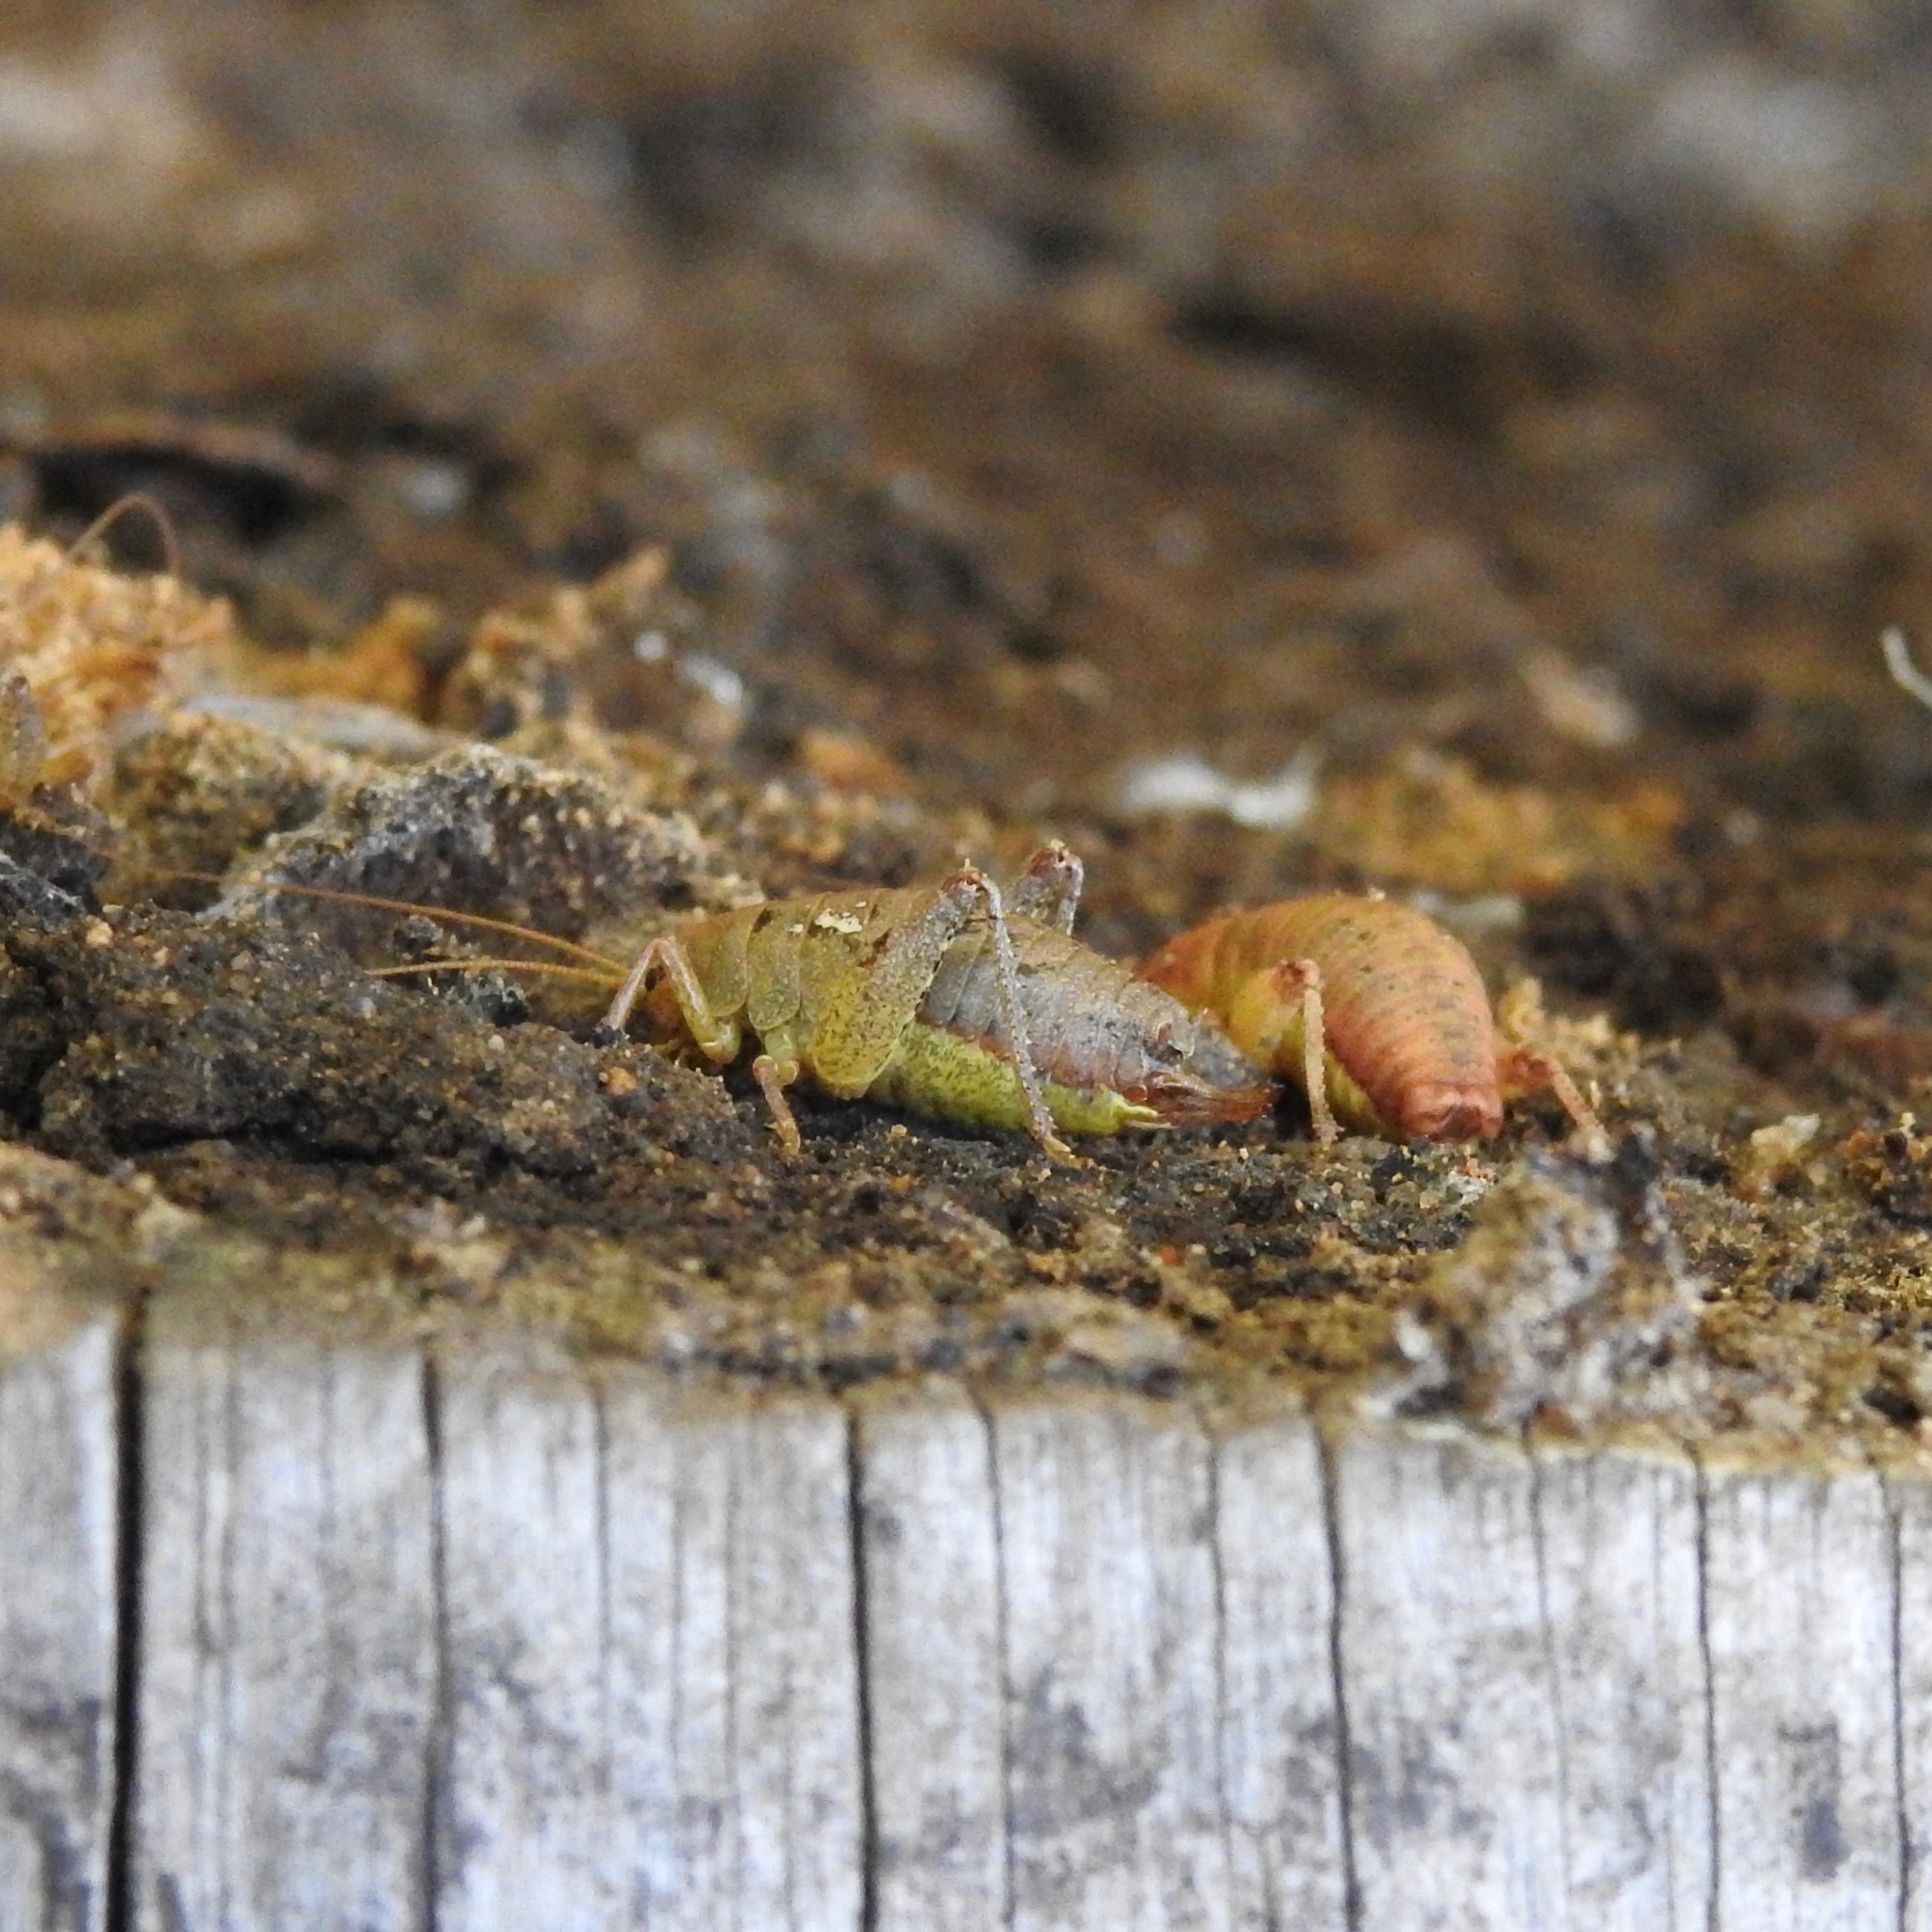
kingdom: Animalia
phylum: Arthropoda
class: Insecta
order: Orthoptera
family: Rhaphidophoridae
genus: Gammarotettix
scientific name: Gammarotettix genitalis
